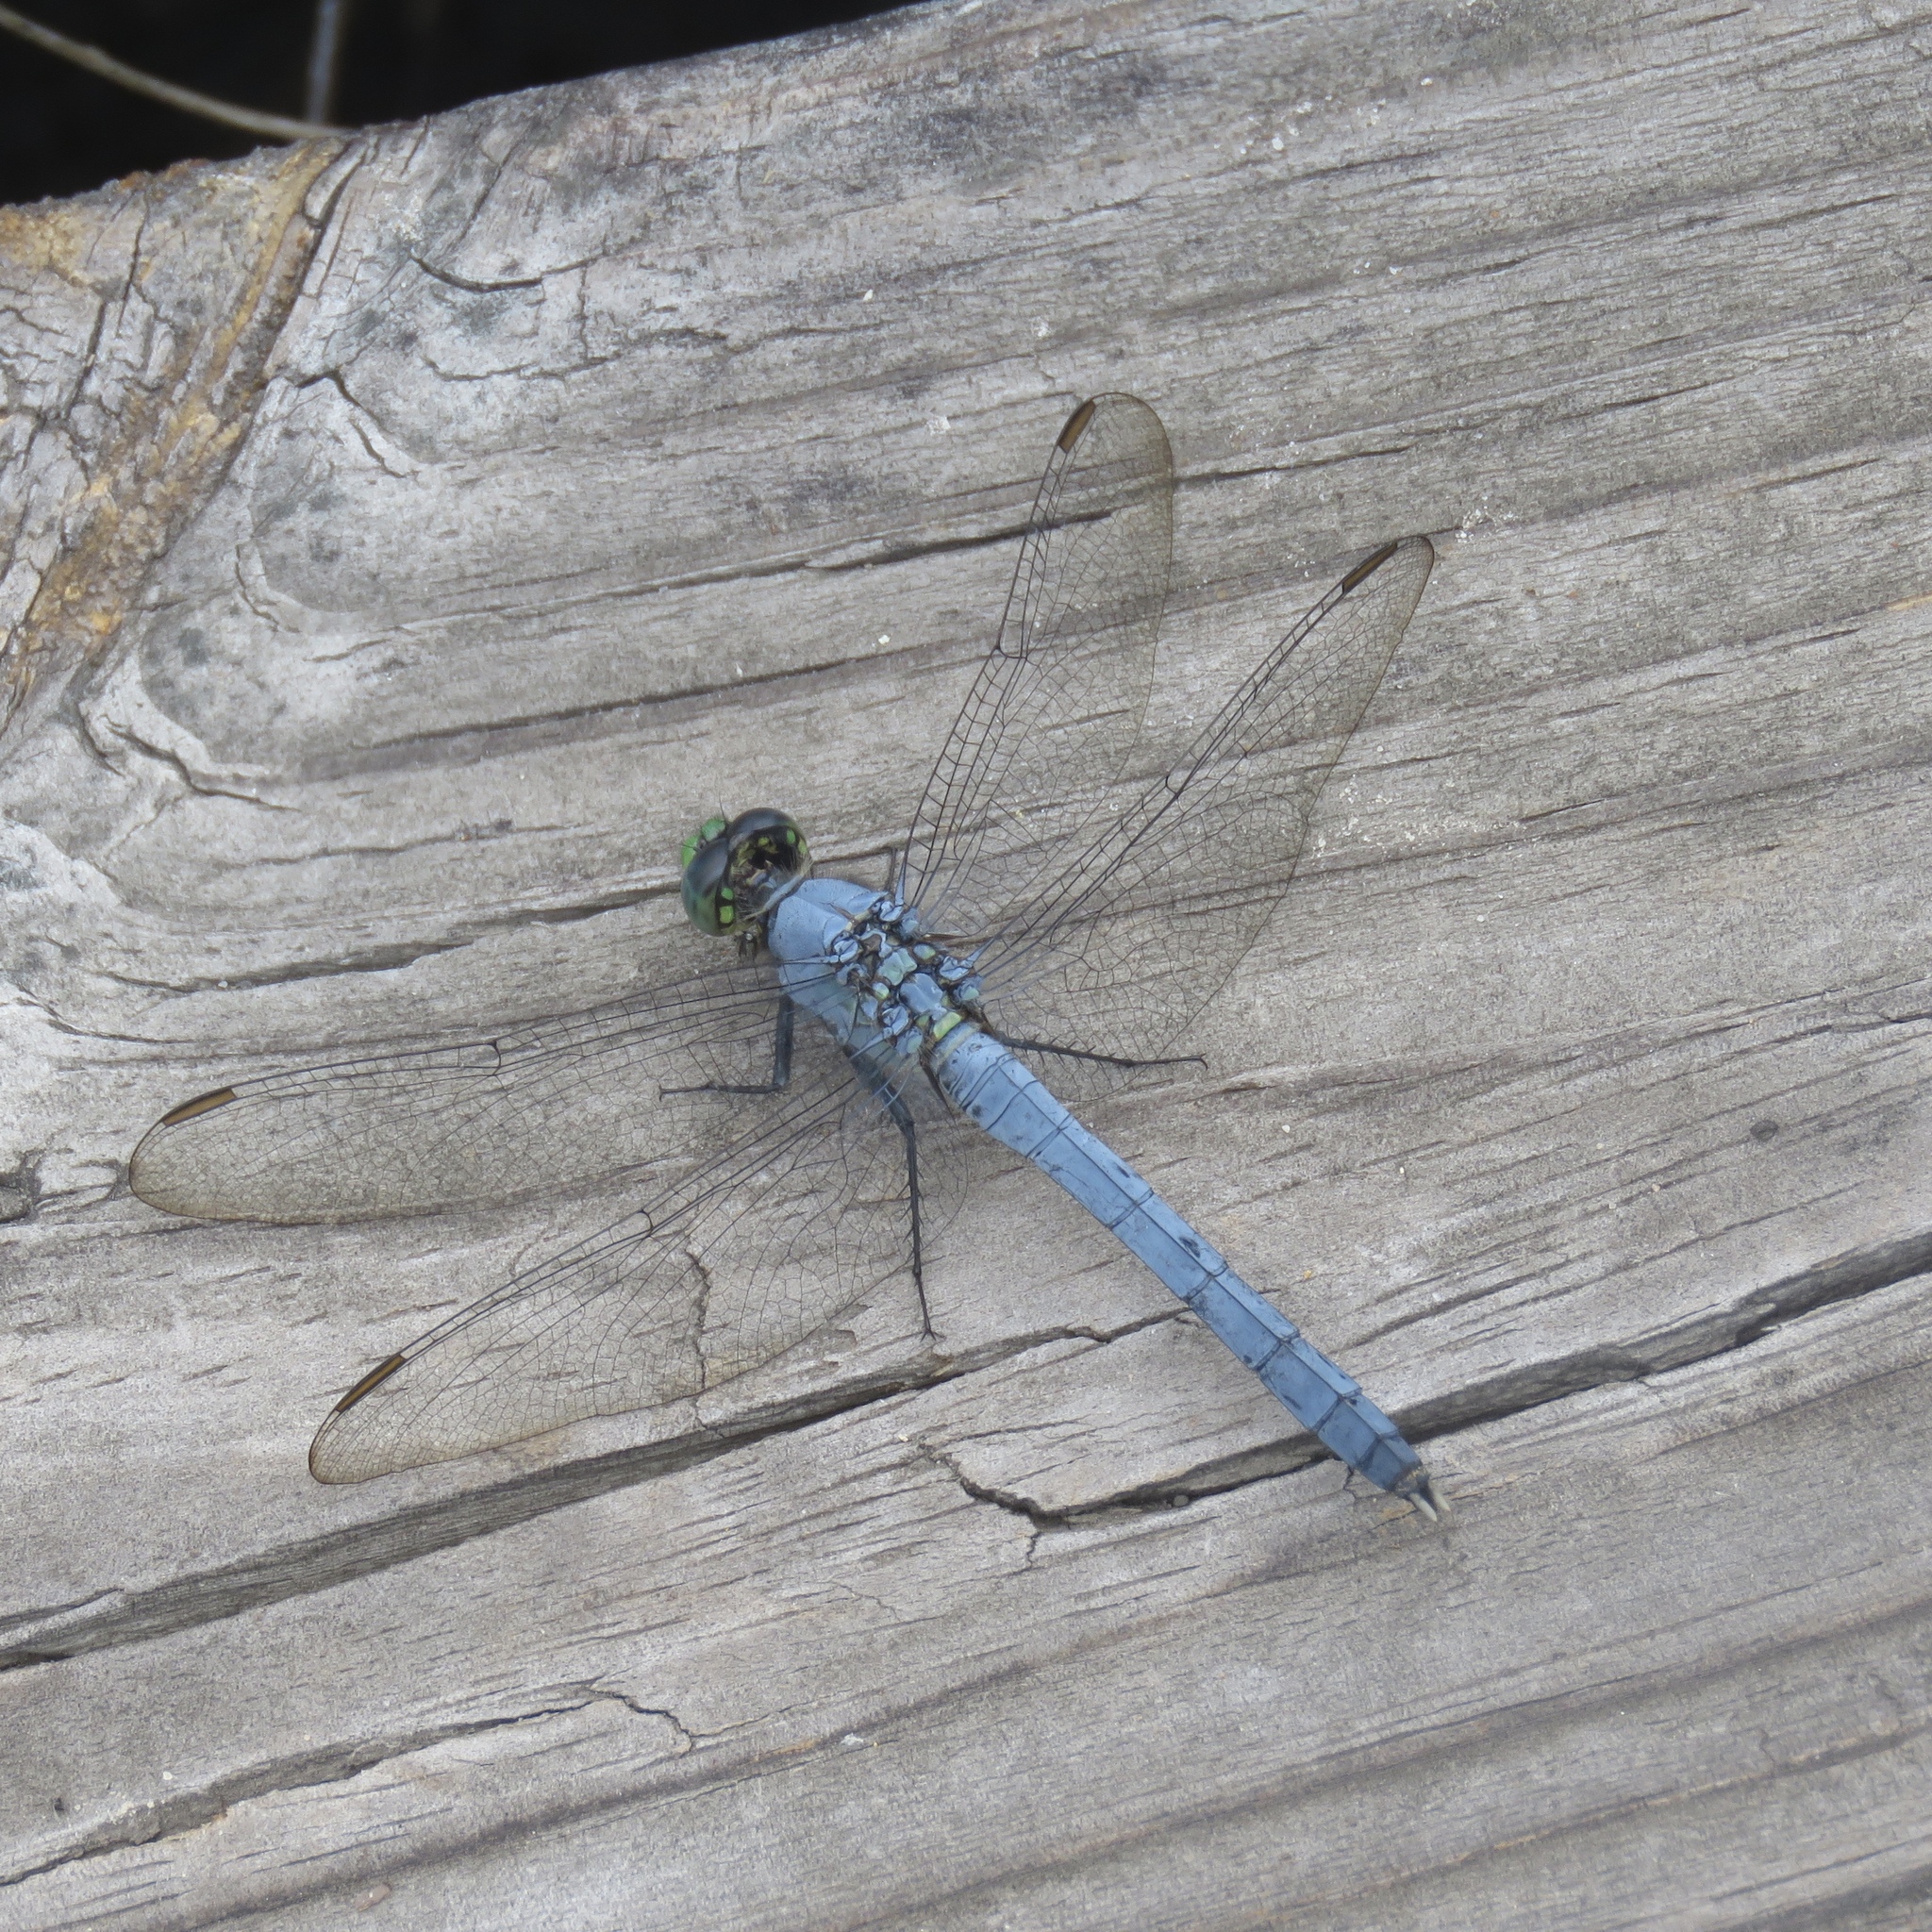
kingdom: Animalia
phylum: Arthropoda
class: Insecta
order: Odonata
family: Libellulidae
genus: Erythemis
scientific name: Erythemis simplicicollis
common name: Eastern pondhawk
